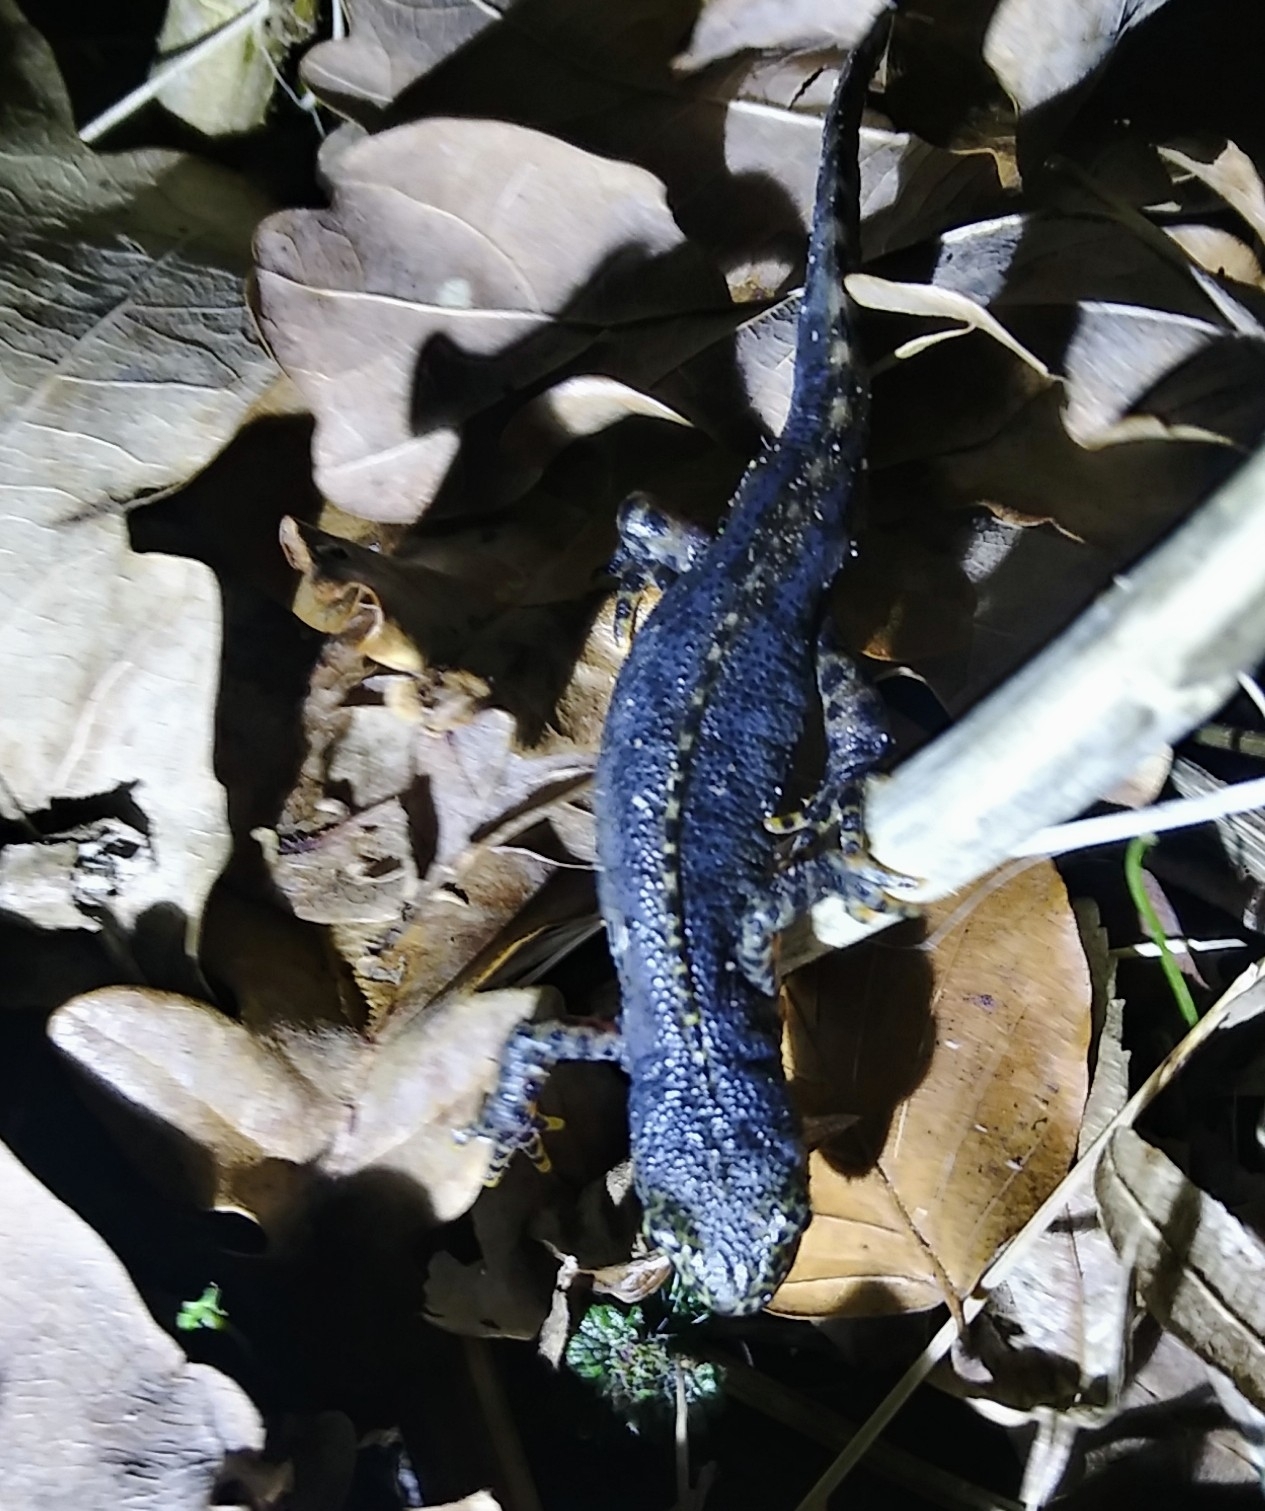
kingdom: Animalia
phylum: Chordata
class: Amphibia
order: Caudata
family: Salamandridae
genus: Ichthyosaura
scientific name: Ichthyosaura alpestris
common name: Alpine newt
